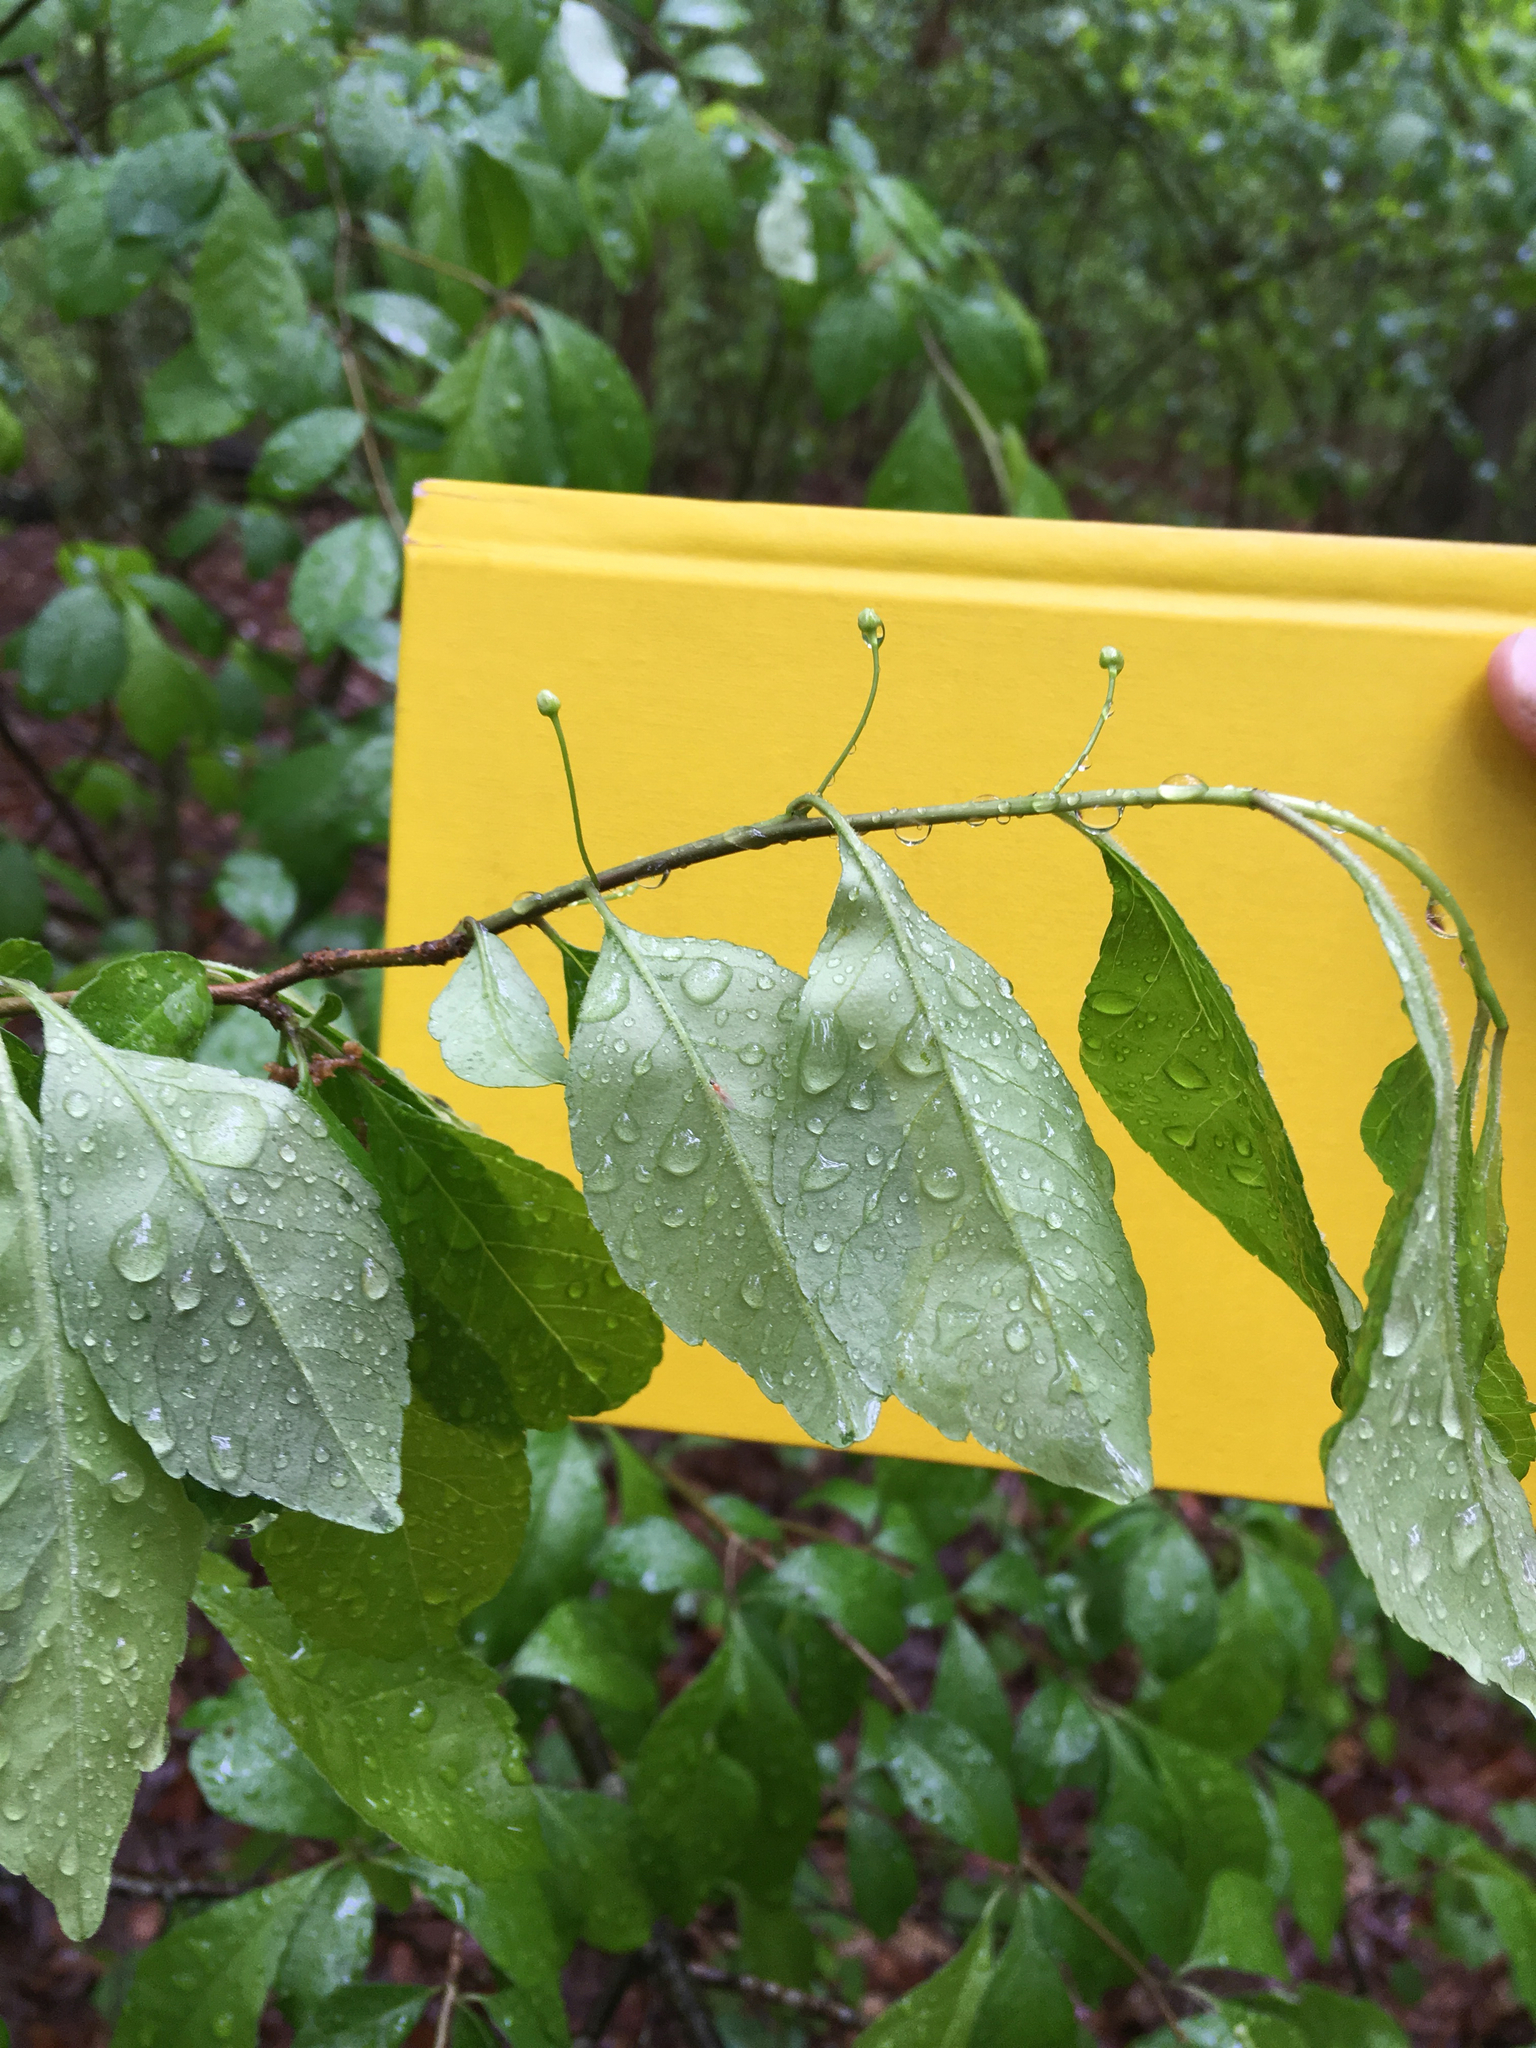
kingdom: Plantae
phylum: Tracheophyta
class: Magnoliopsida
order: Aquifoliales
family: Aquifoliaceae
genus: Ilex
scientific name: Ilex longipes
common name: Georgia holly
